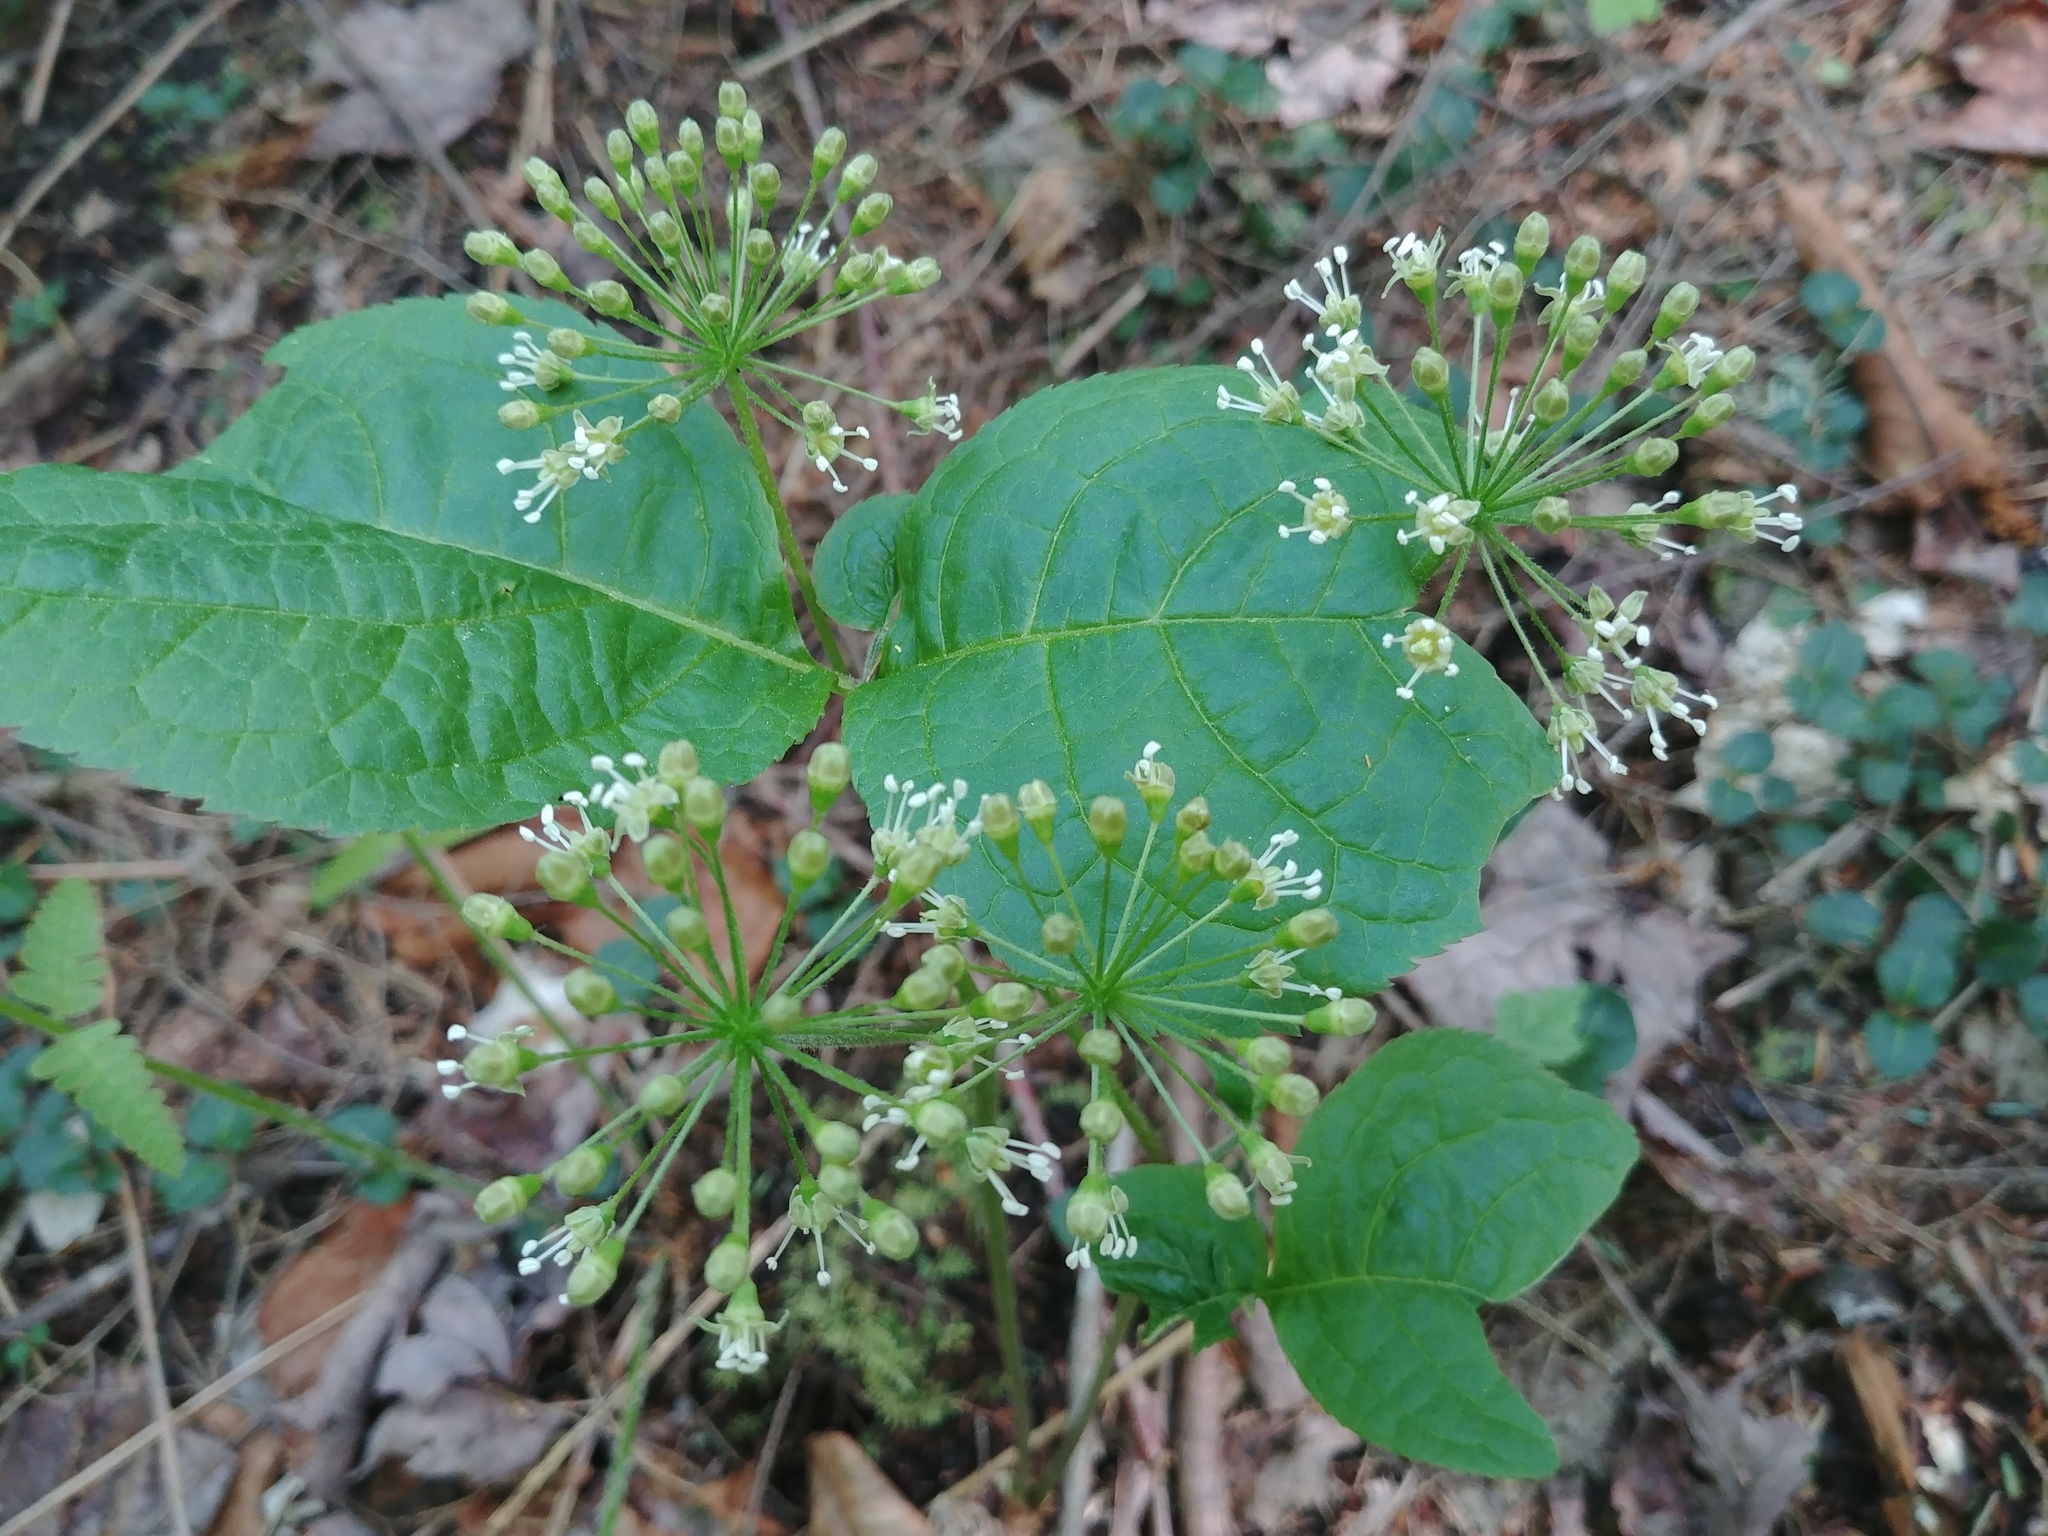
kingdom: Plantae
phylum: Tracheophyta
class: Magnoliopsida
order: Apiales
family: Araliaceae
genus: Aralia
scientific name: Aralia nudicaulis
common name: Wild sarsaparilla
